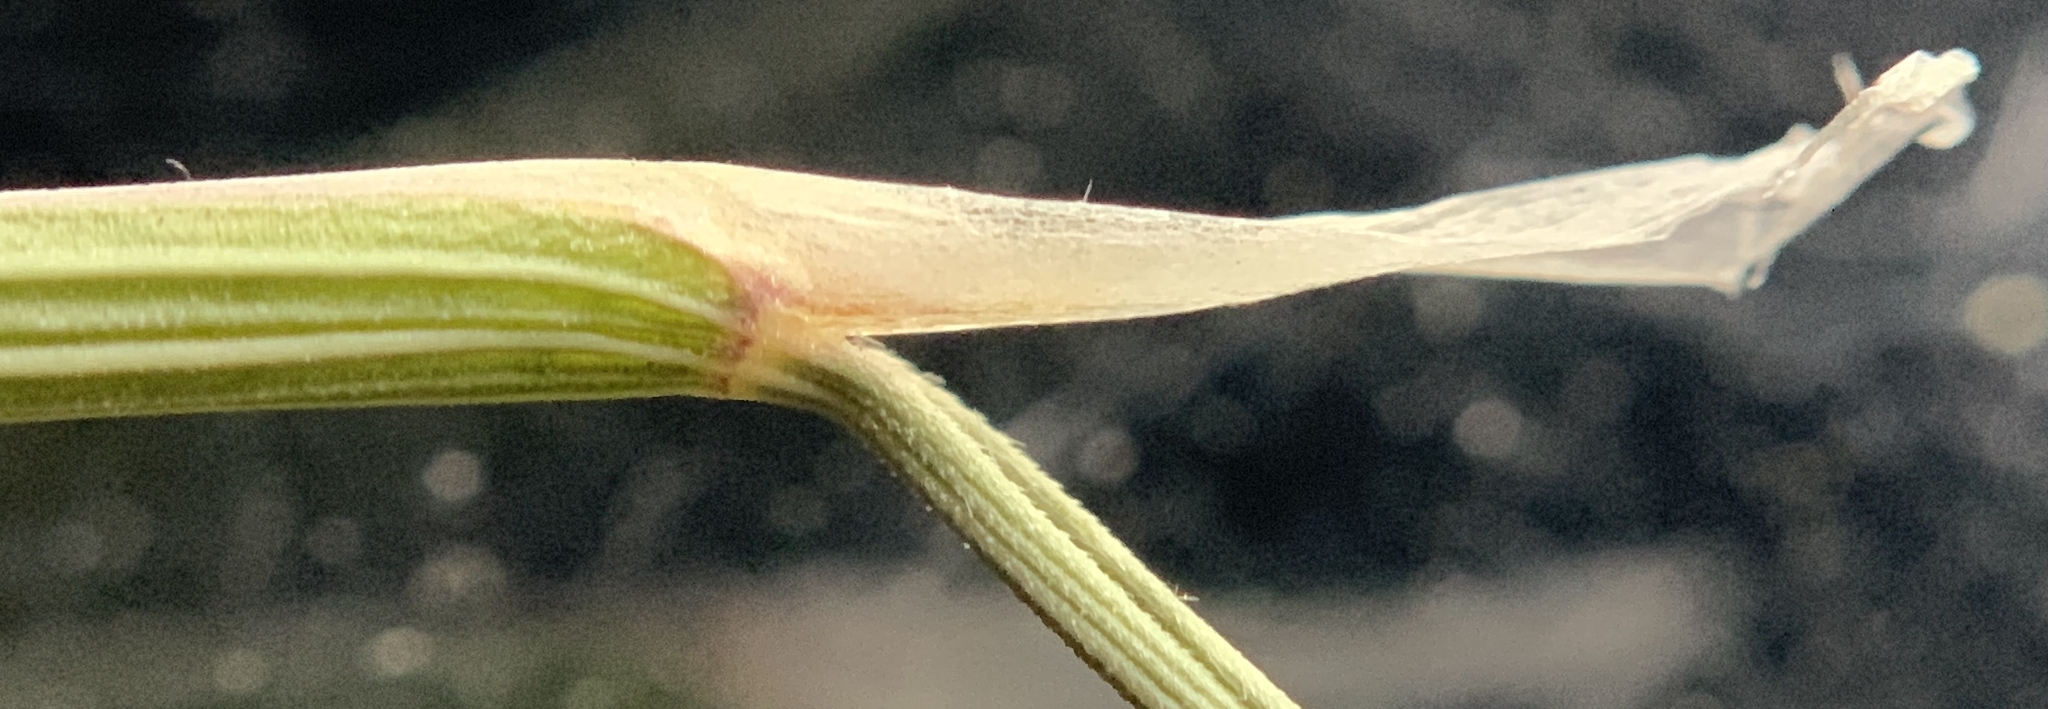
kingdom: Plantae
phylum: Tracheophyta
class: Liliopsida
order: Poales
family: Poaceae
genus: Eriocoma
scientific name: Eriocoma thurberiana
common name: Thurber's needlegrass
